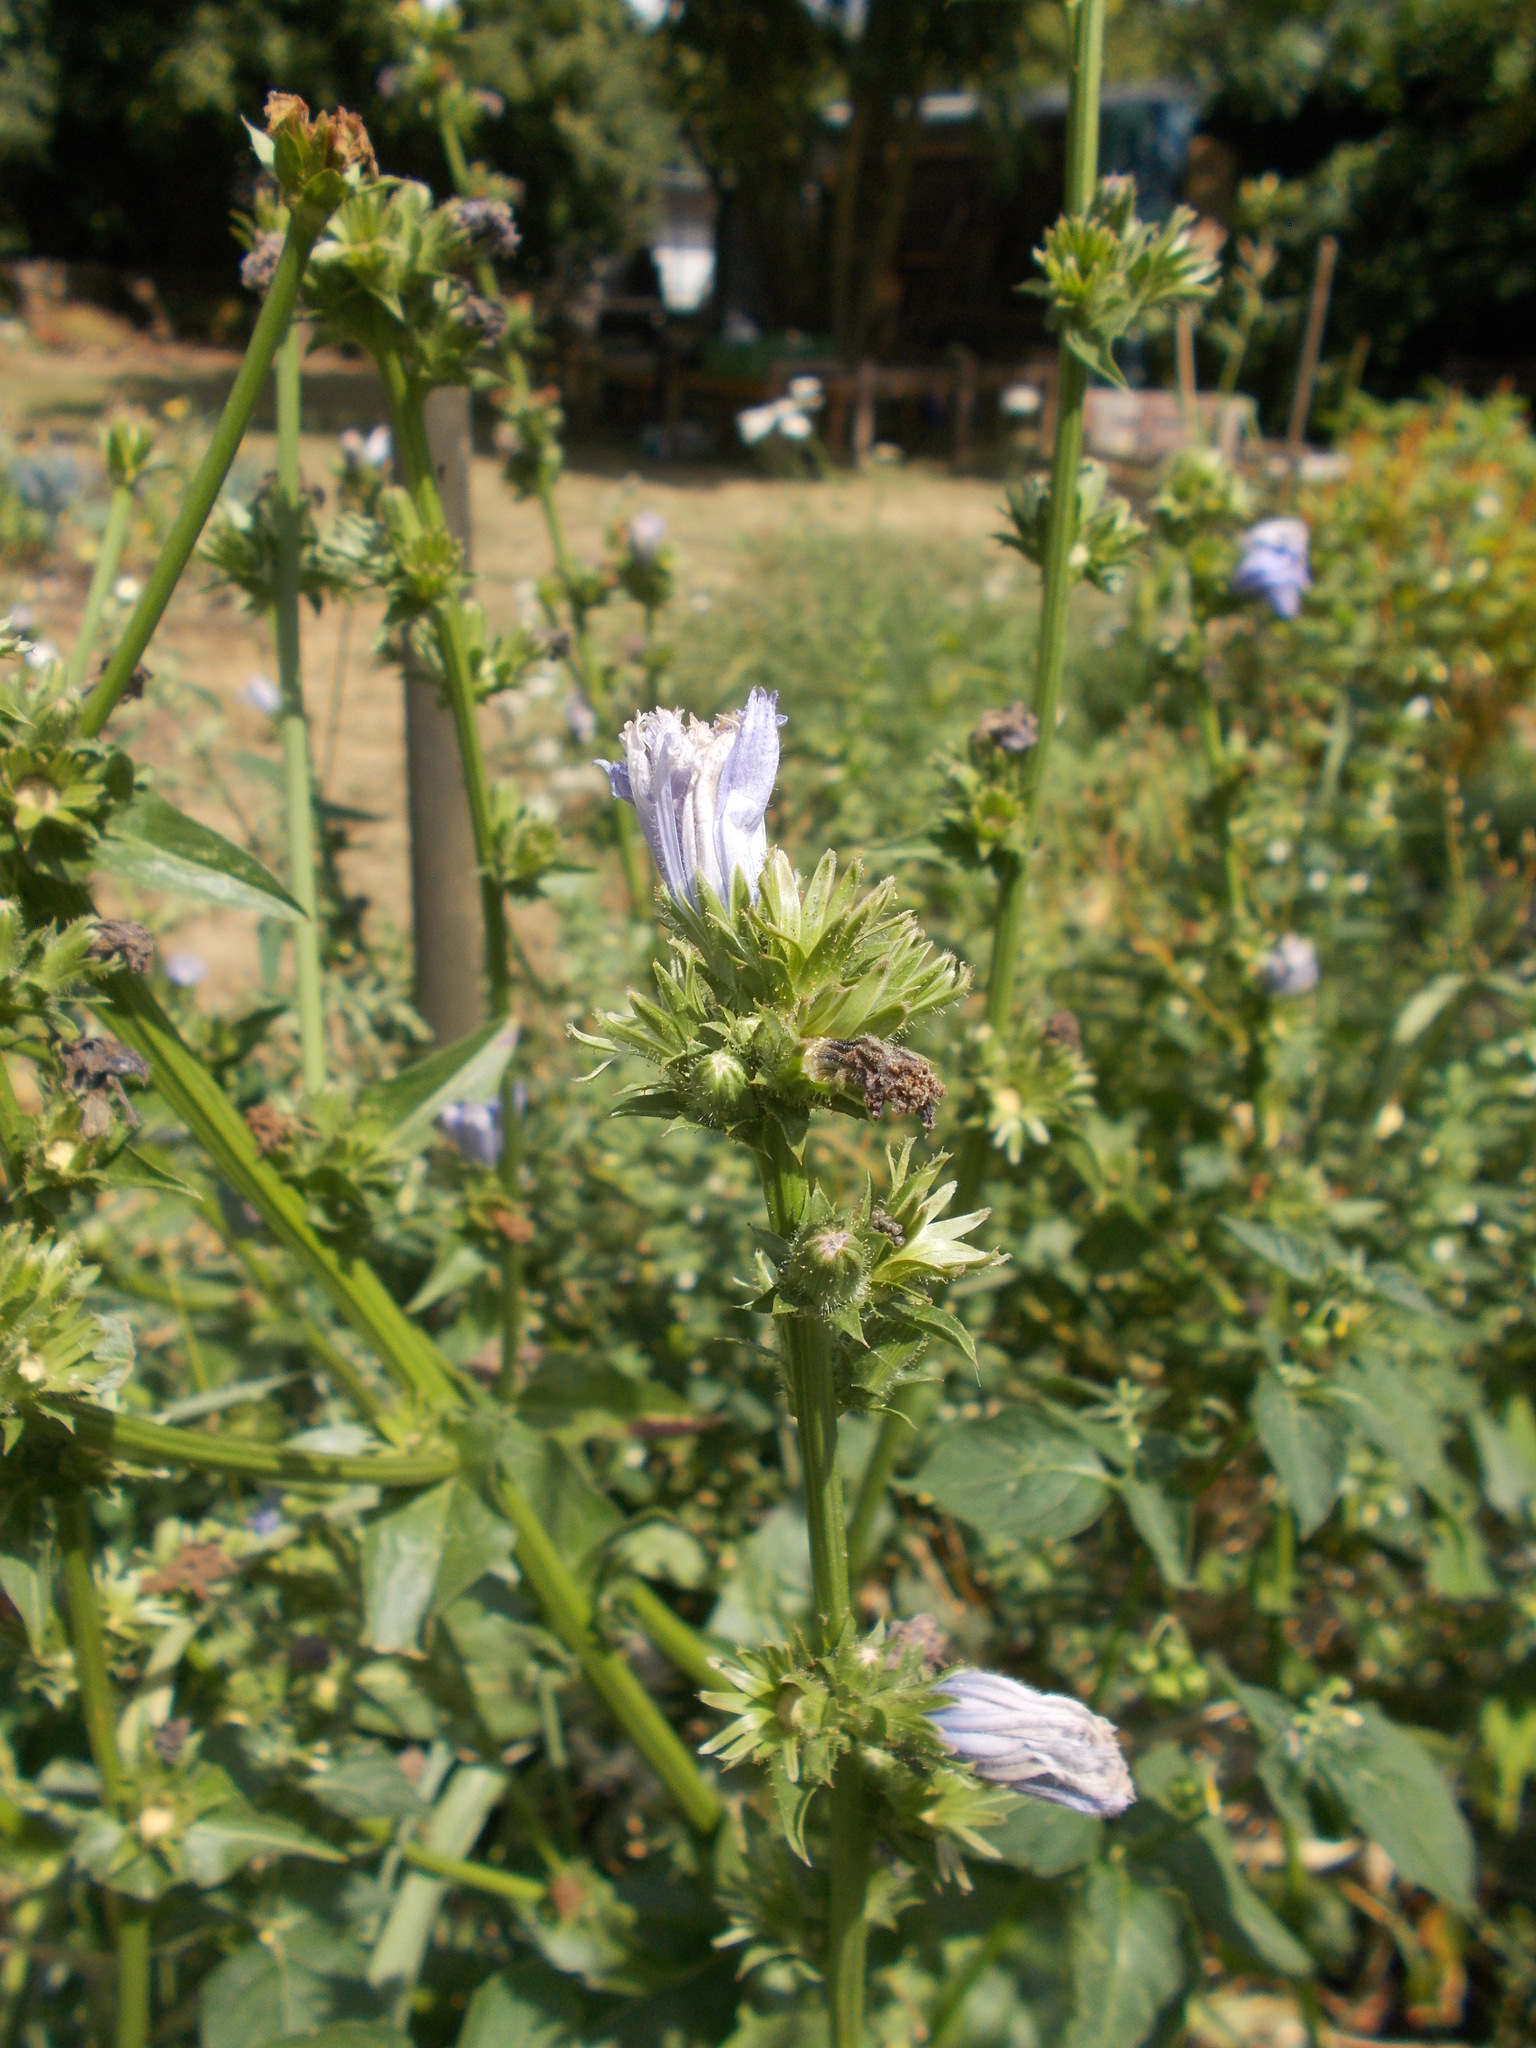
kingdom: Plantae
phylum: Tracheophyta
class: Magnoliopsida
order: Asterales
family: Asteraceae
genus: Cichorium
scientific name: Cichorium intybus
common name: Chicory
